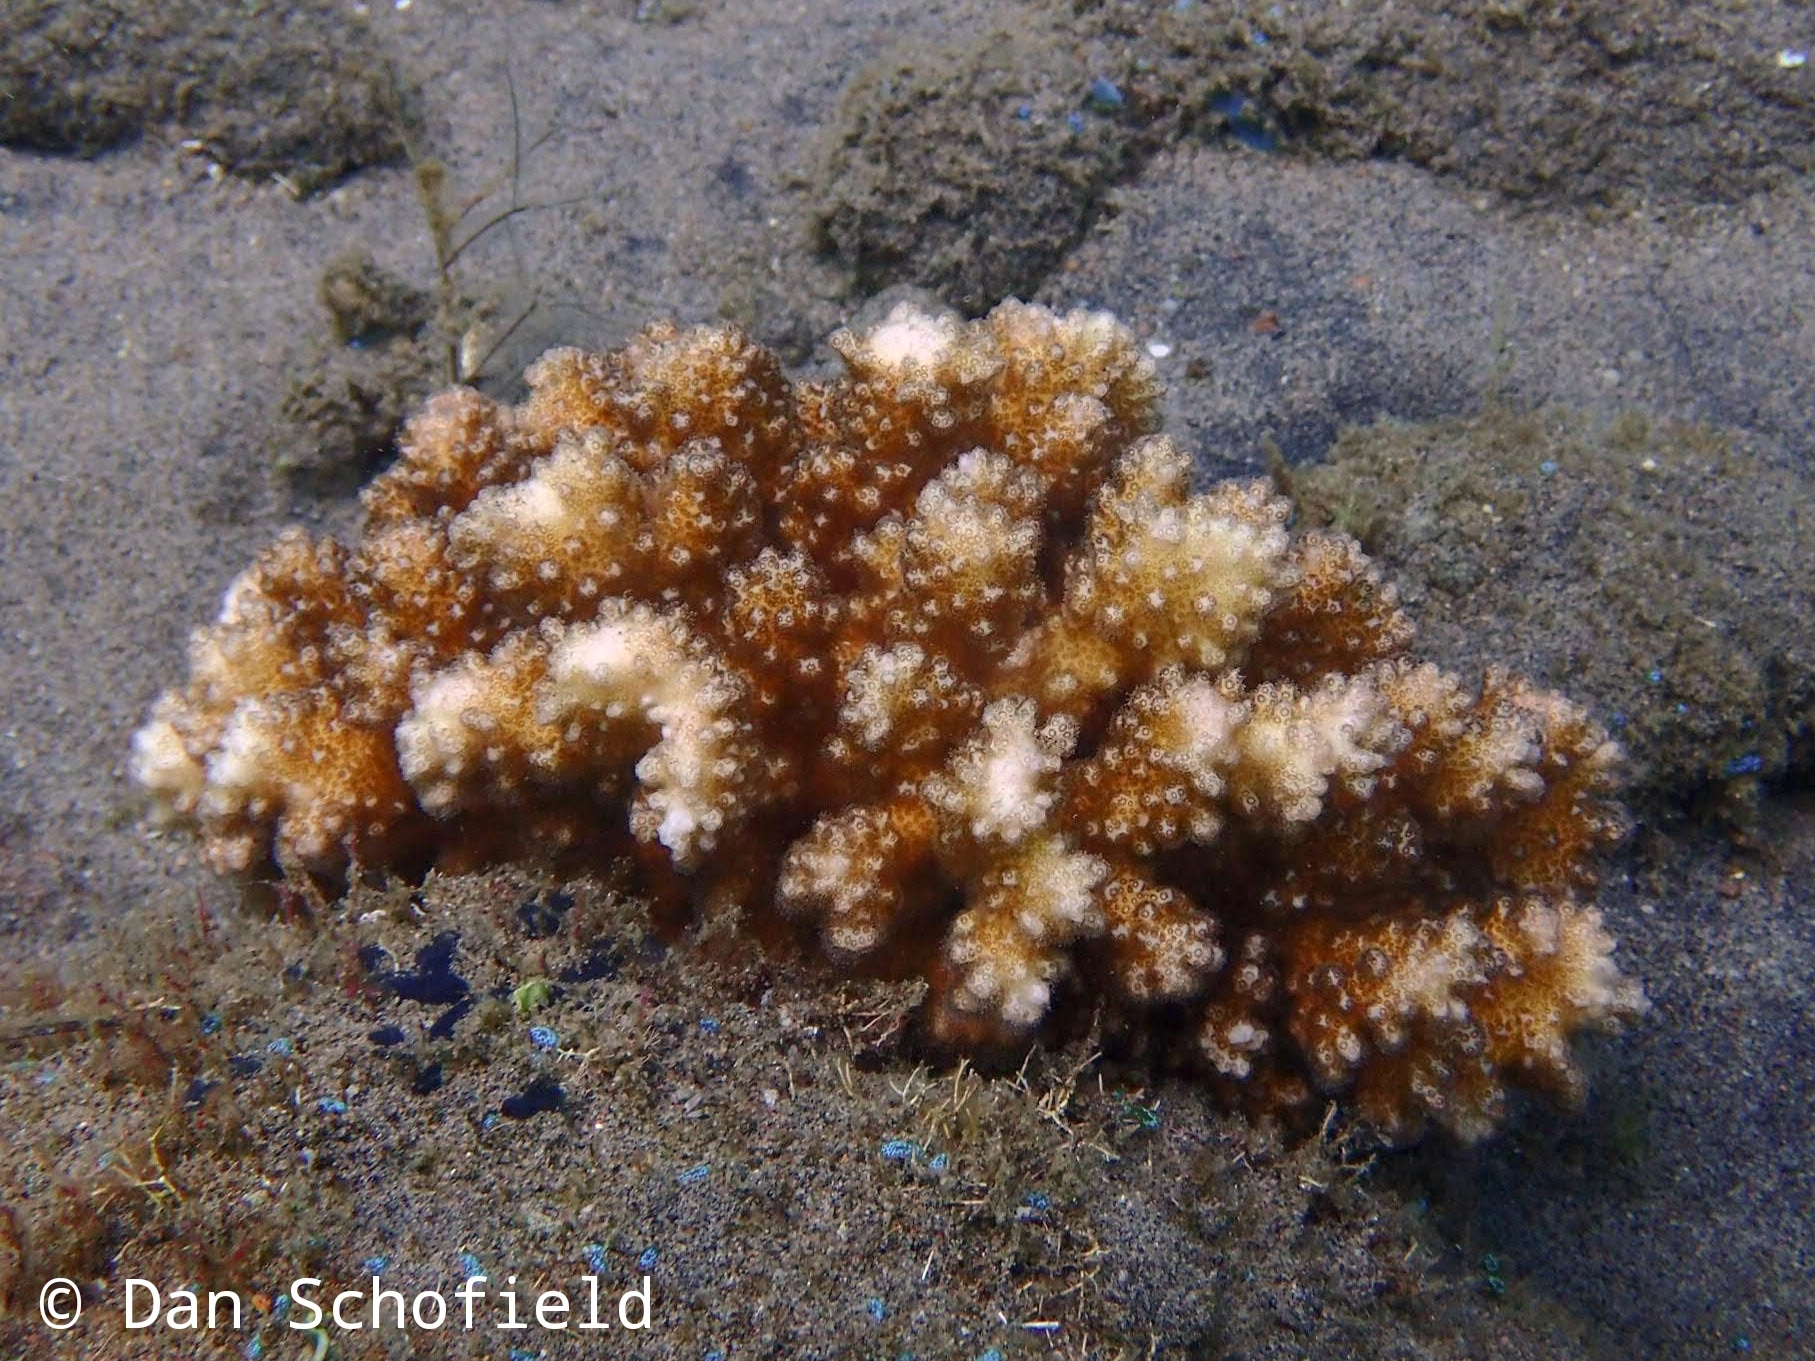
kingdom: Animalia
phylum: Cnidaria
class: Anthozoa
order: Scleractinia
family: Pocilloporidae
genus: Pocillopora
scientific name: Pocillopora damicornis
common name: Cauliflower coral
